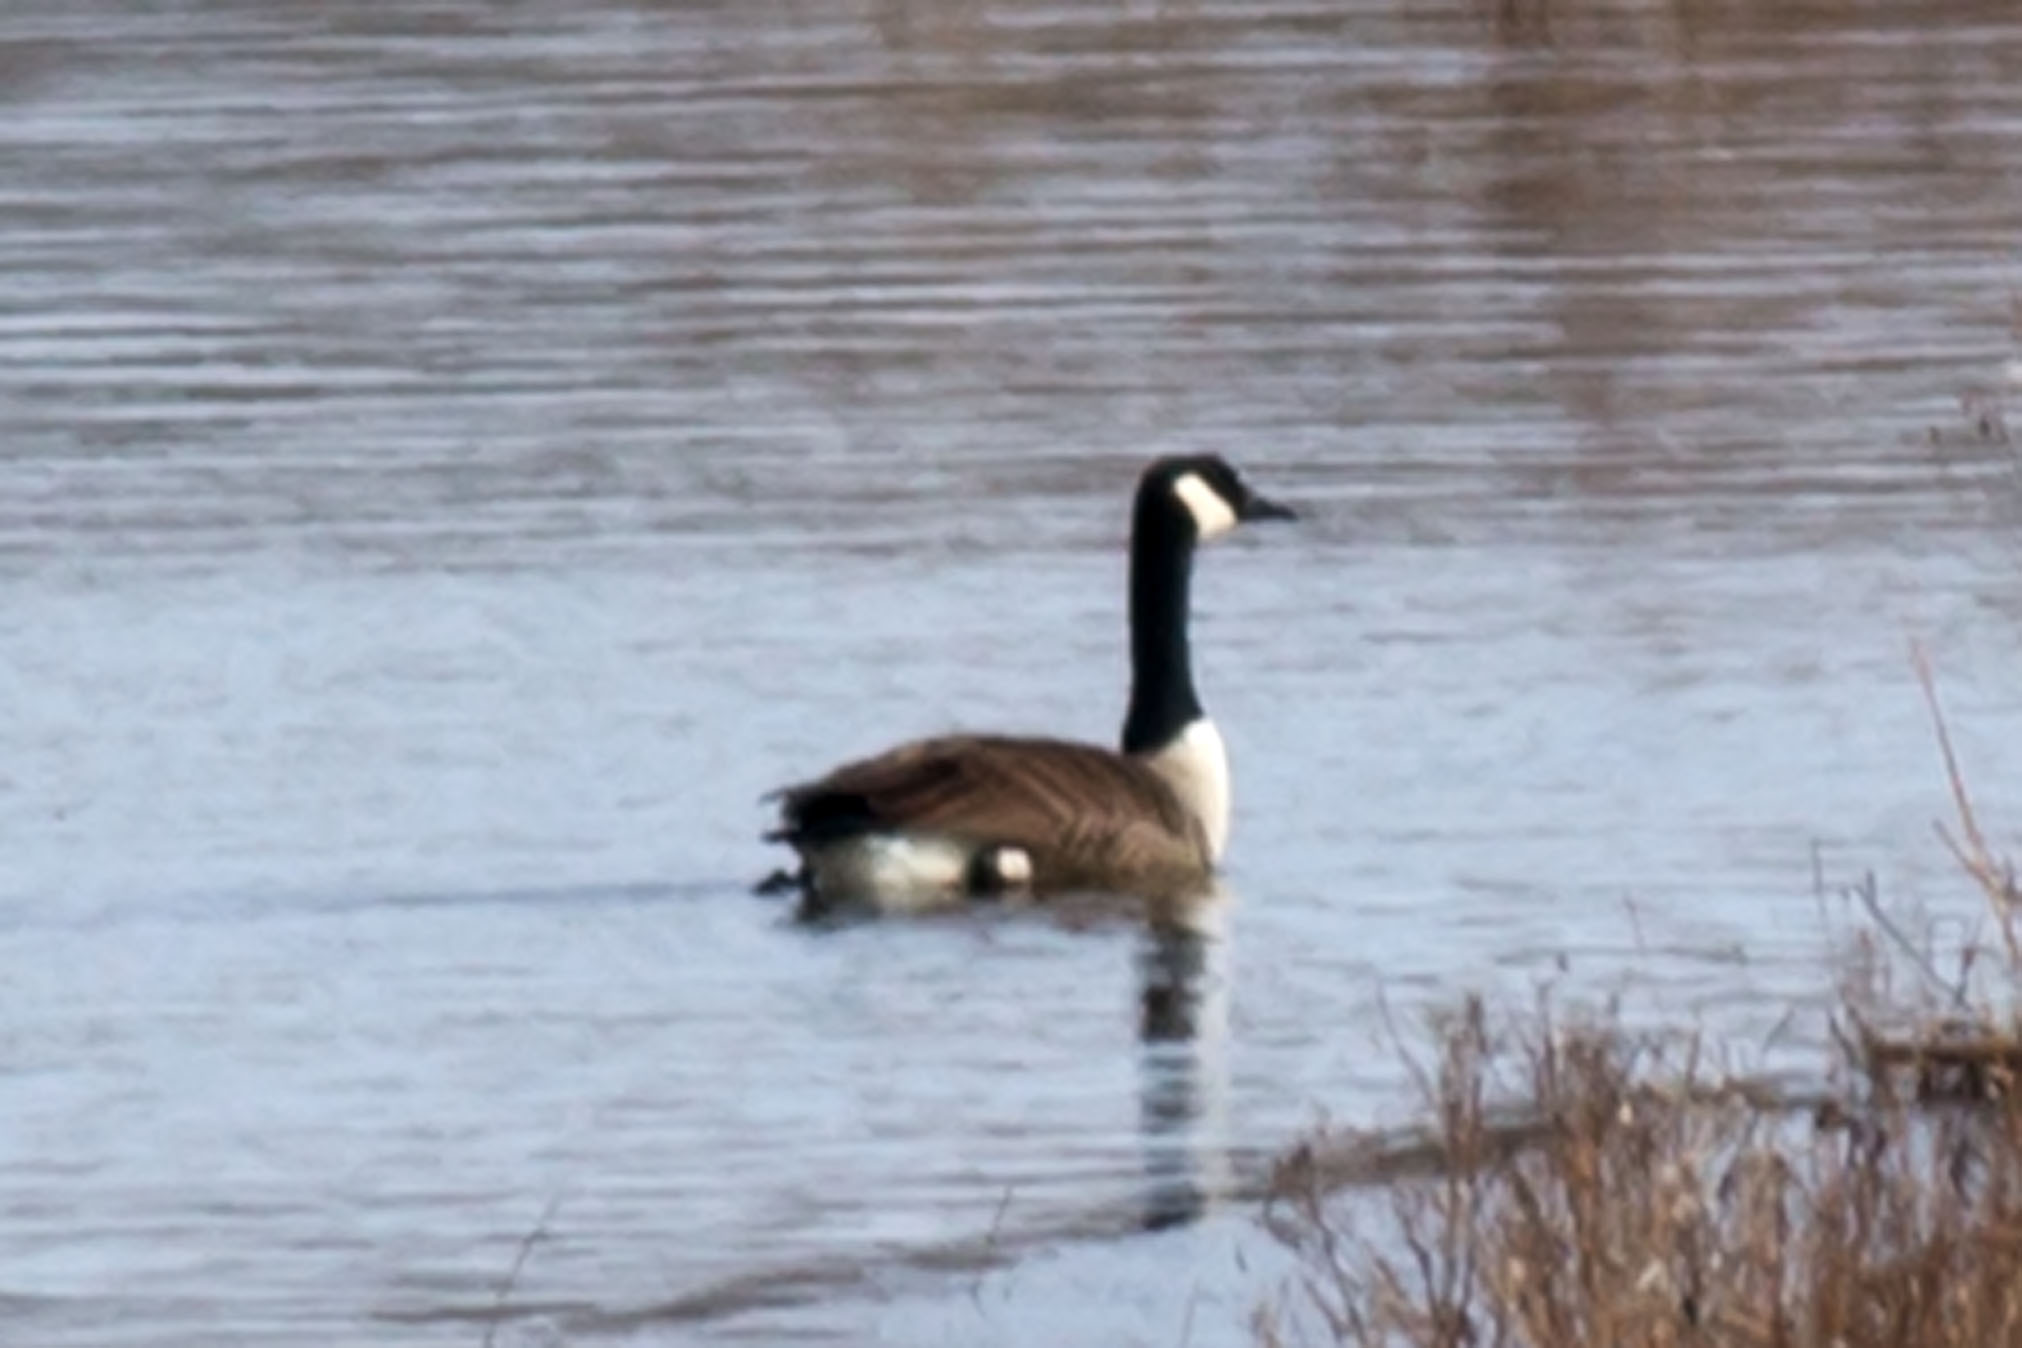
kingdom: Animalia
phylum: Chordata
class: Aves
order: Anseriformes
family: Anatidae
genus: Branta
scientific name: Branta canadensis
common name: Canada goose
